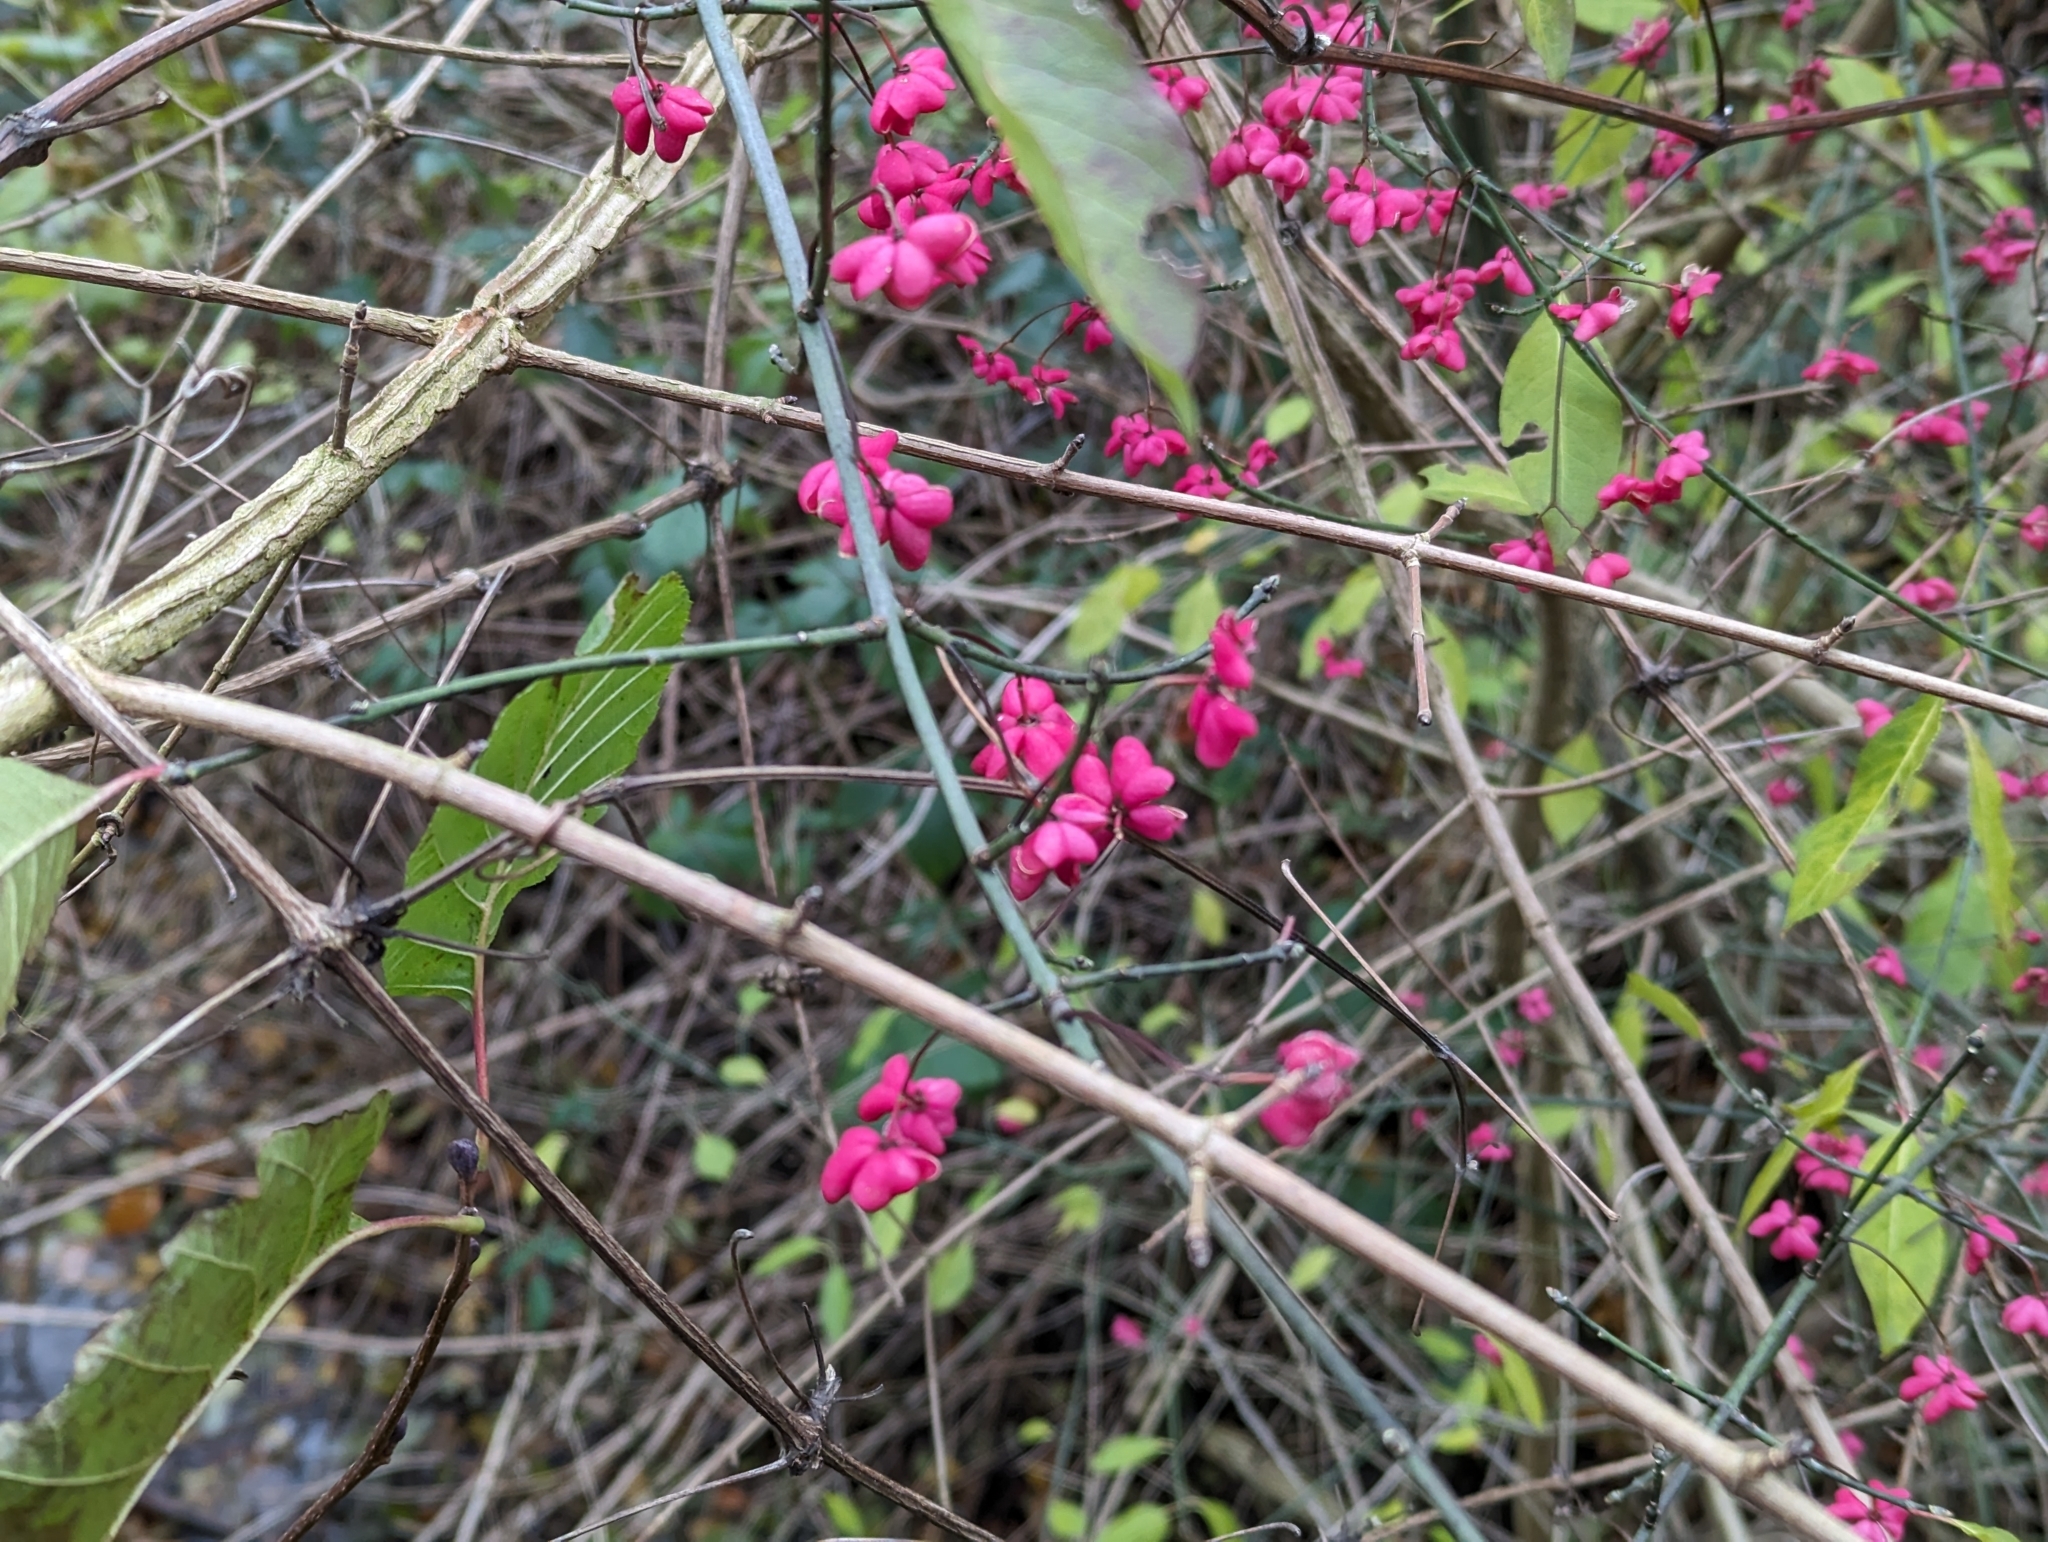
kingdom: Plantae
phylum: Tracheophyta
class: Magnoliopsida
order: Celastrales
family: Celastraceae
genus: Euonymus
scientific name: Euonymus europaeus
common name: Spindle
